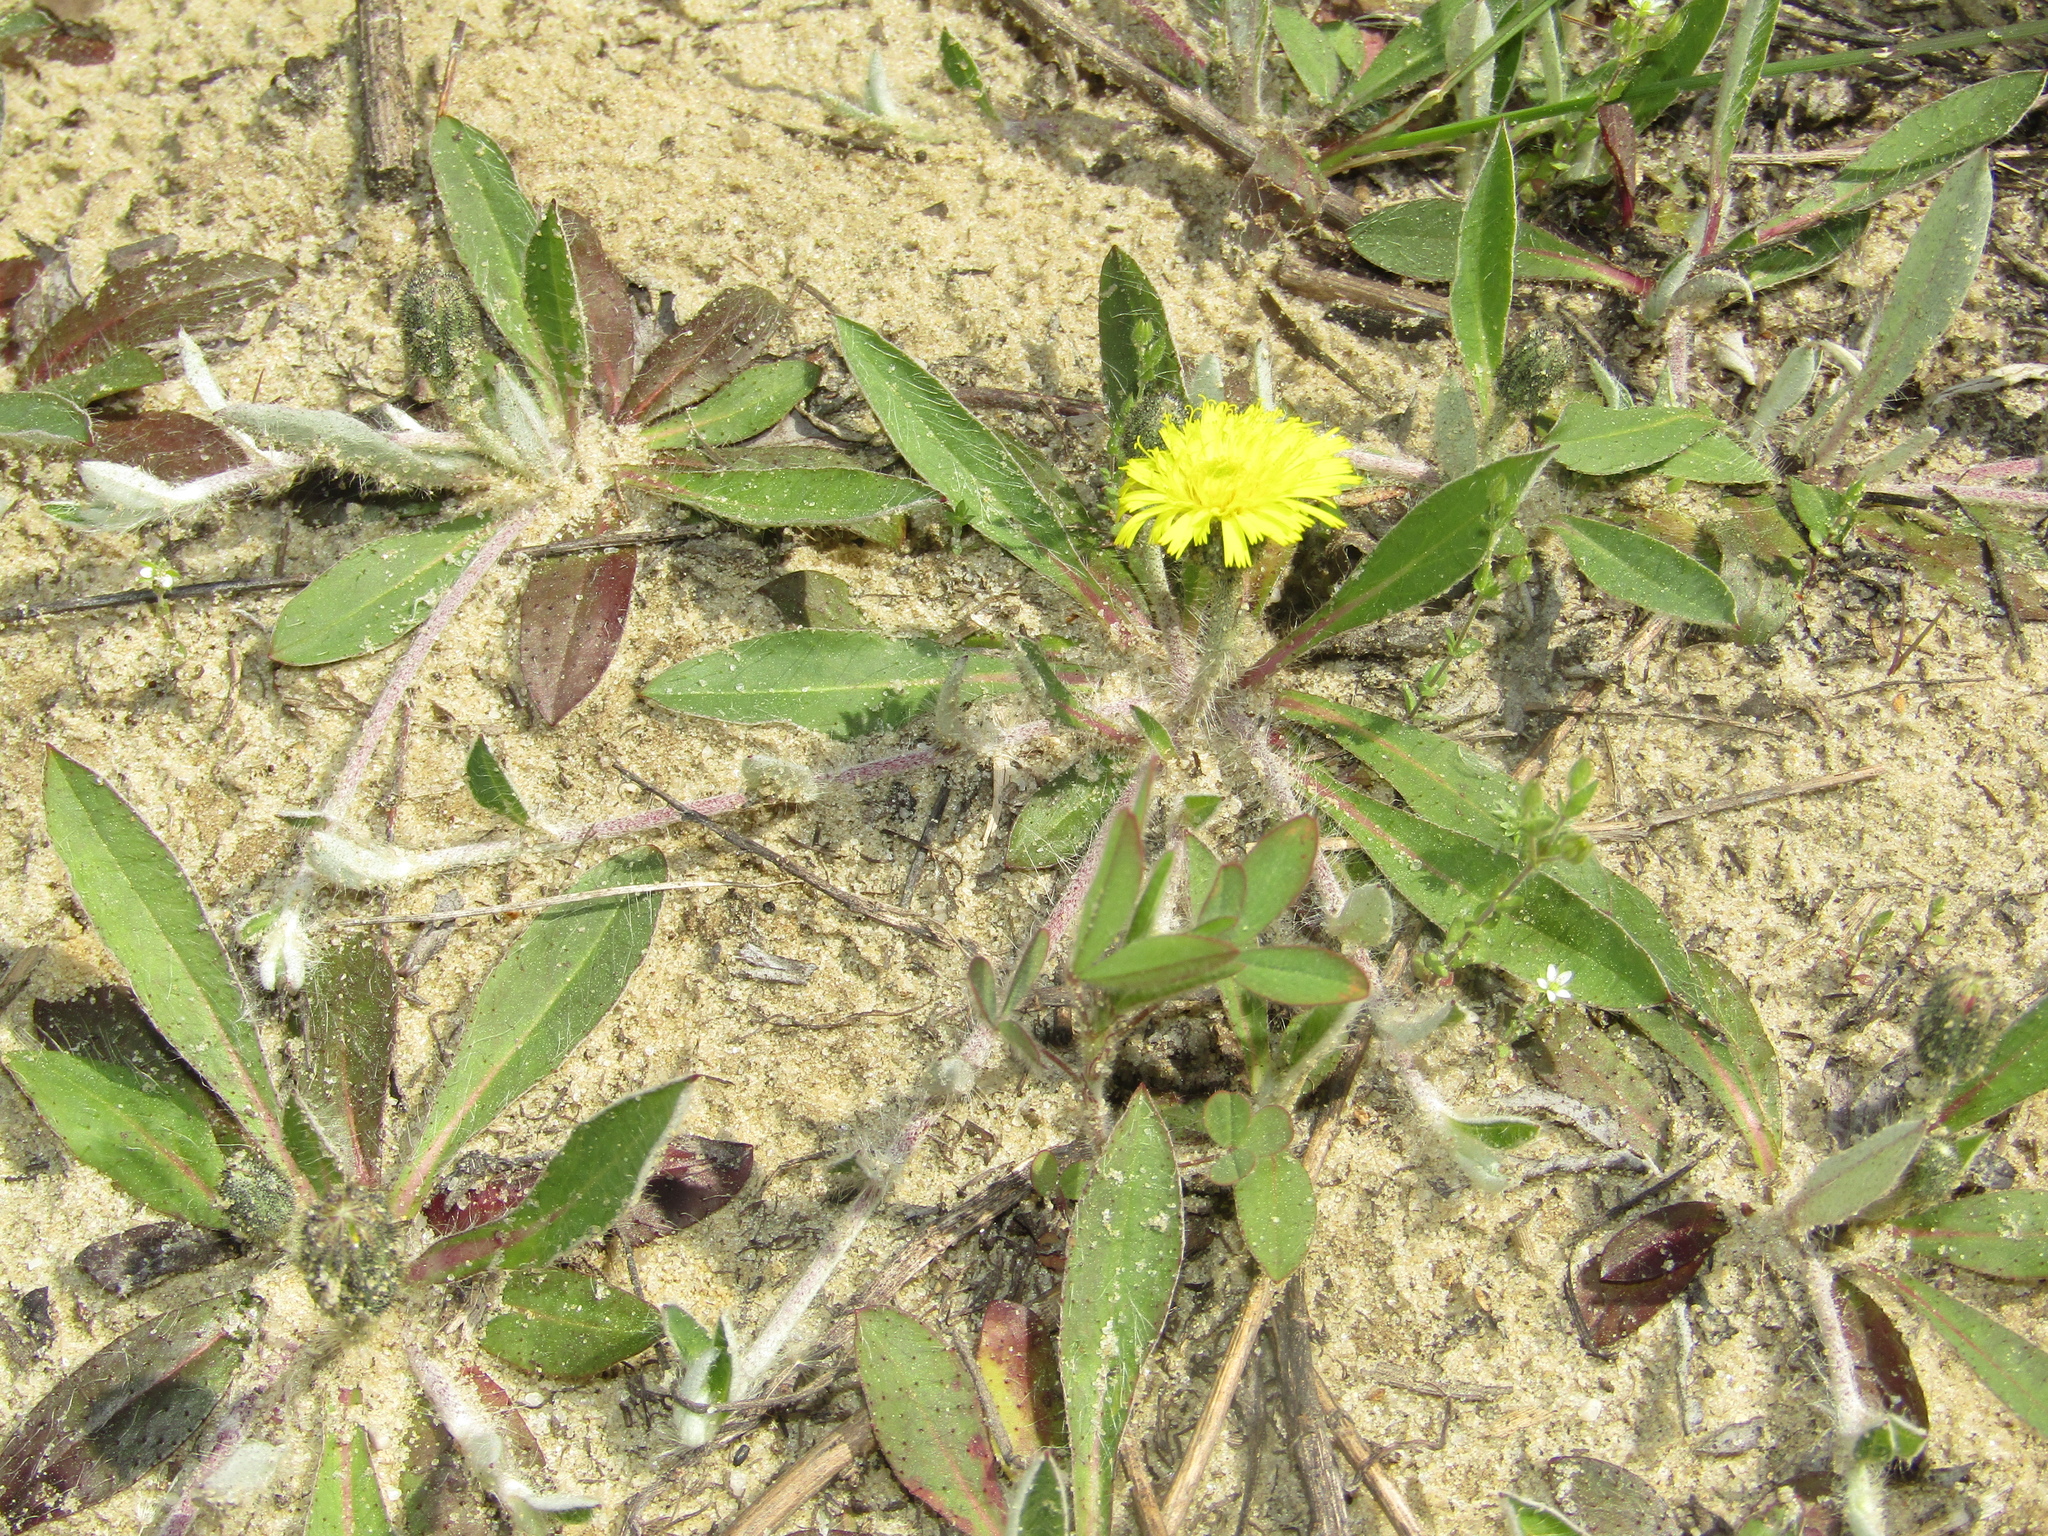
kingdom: Plantae
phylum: Tracheophyta
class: Magnoliopsida
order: Asterales
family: Asteraceae
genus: Pilosella
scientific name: Pilosella officinarum
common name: Mouse-ear hawkweed
